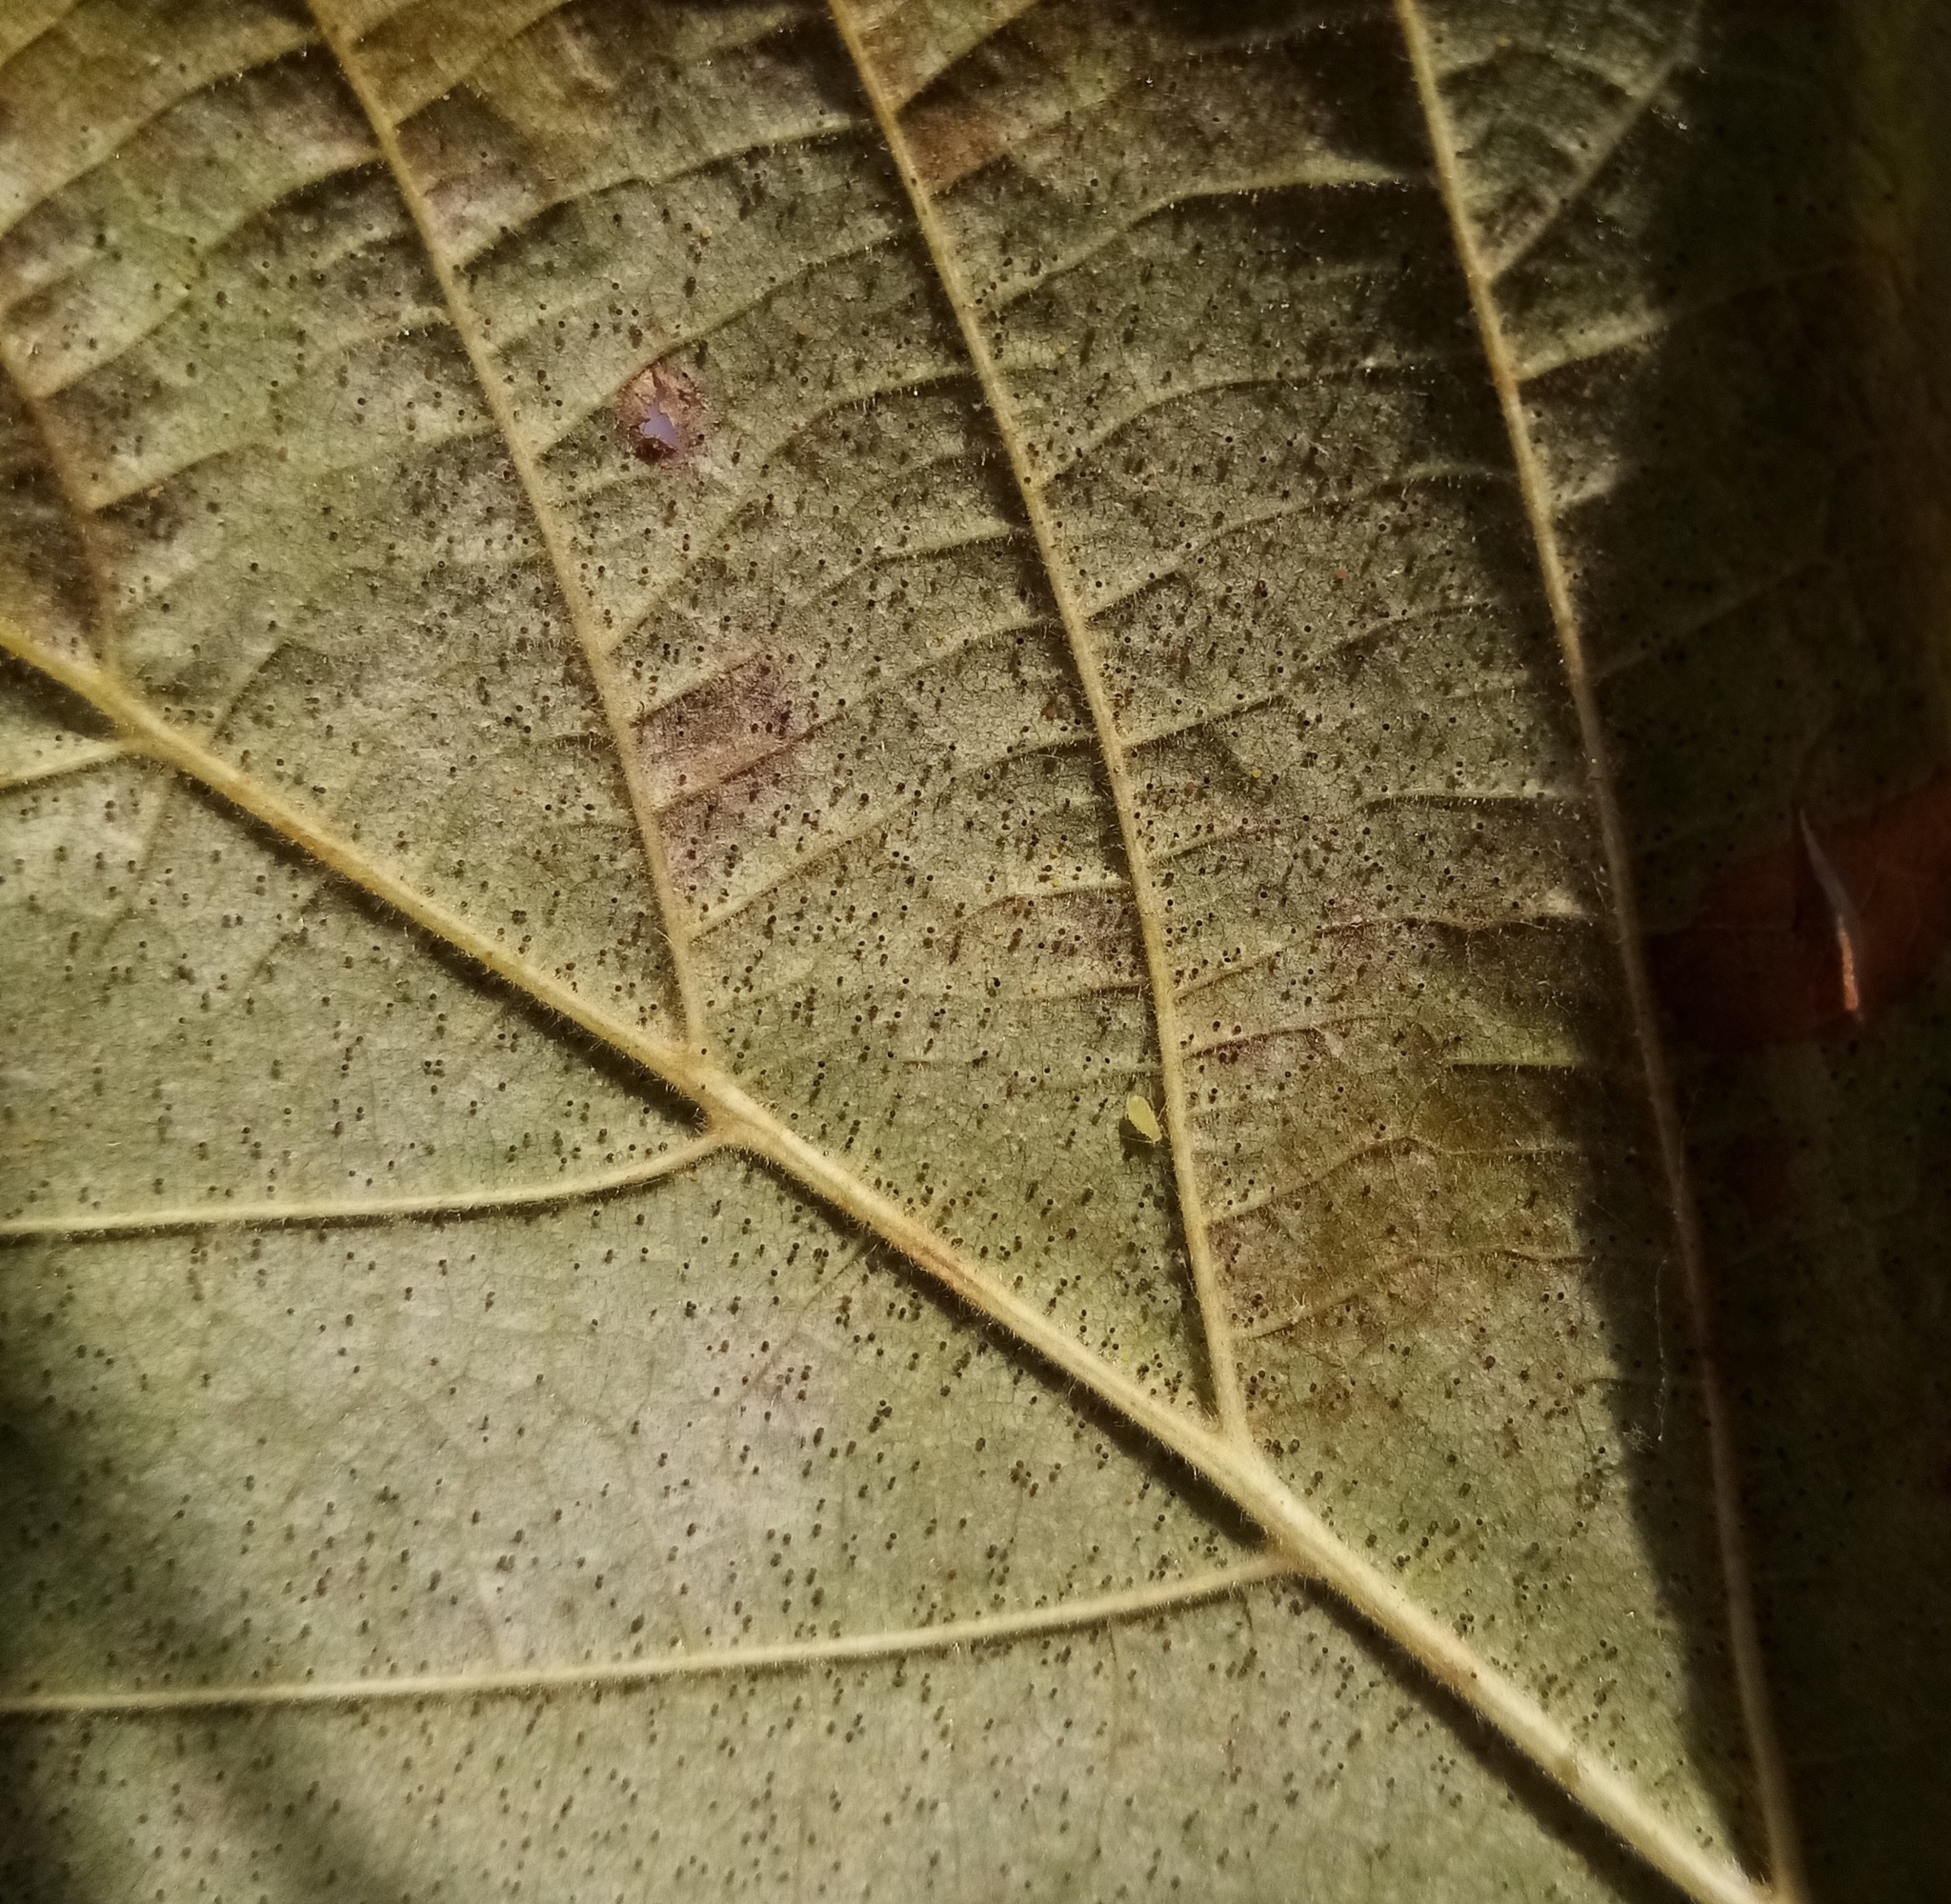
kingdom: Fungi
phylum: Ascomycota
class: Leotiomycetes
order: Helotiales
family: Erysiphaceae
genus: Phyllactinia
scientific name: Phyllactinia guttata
